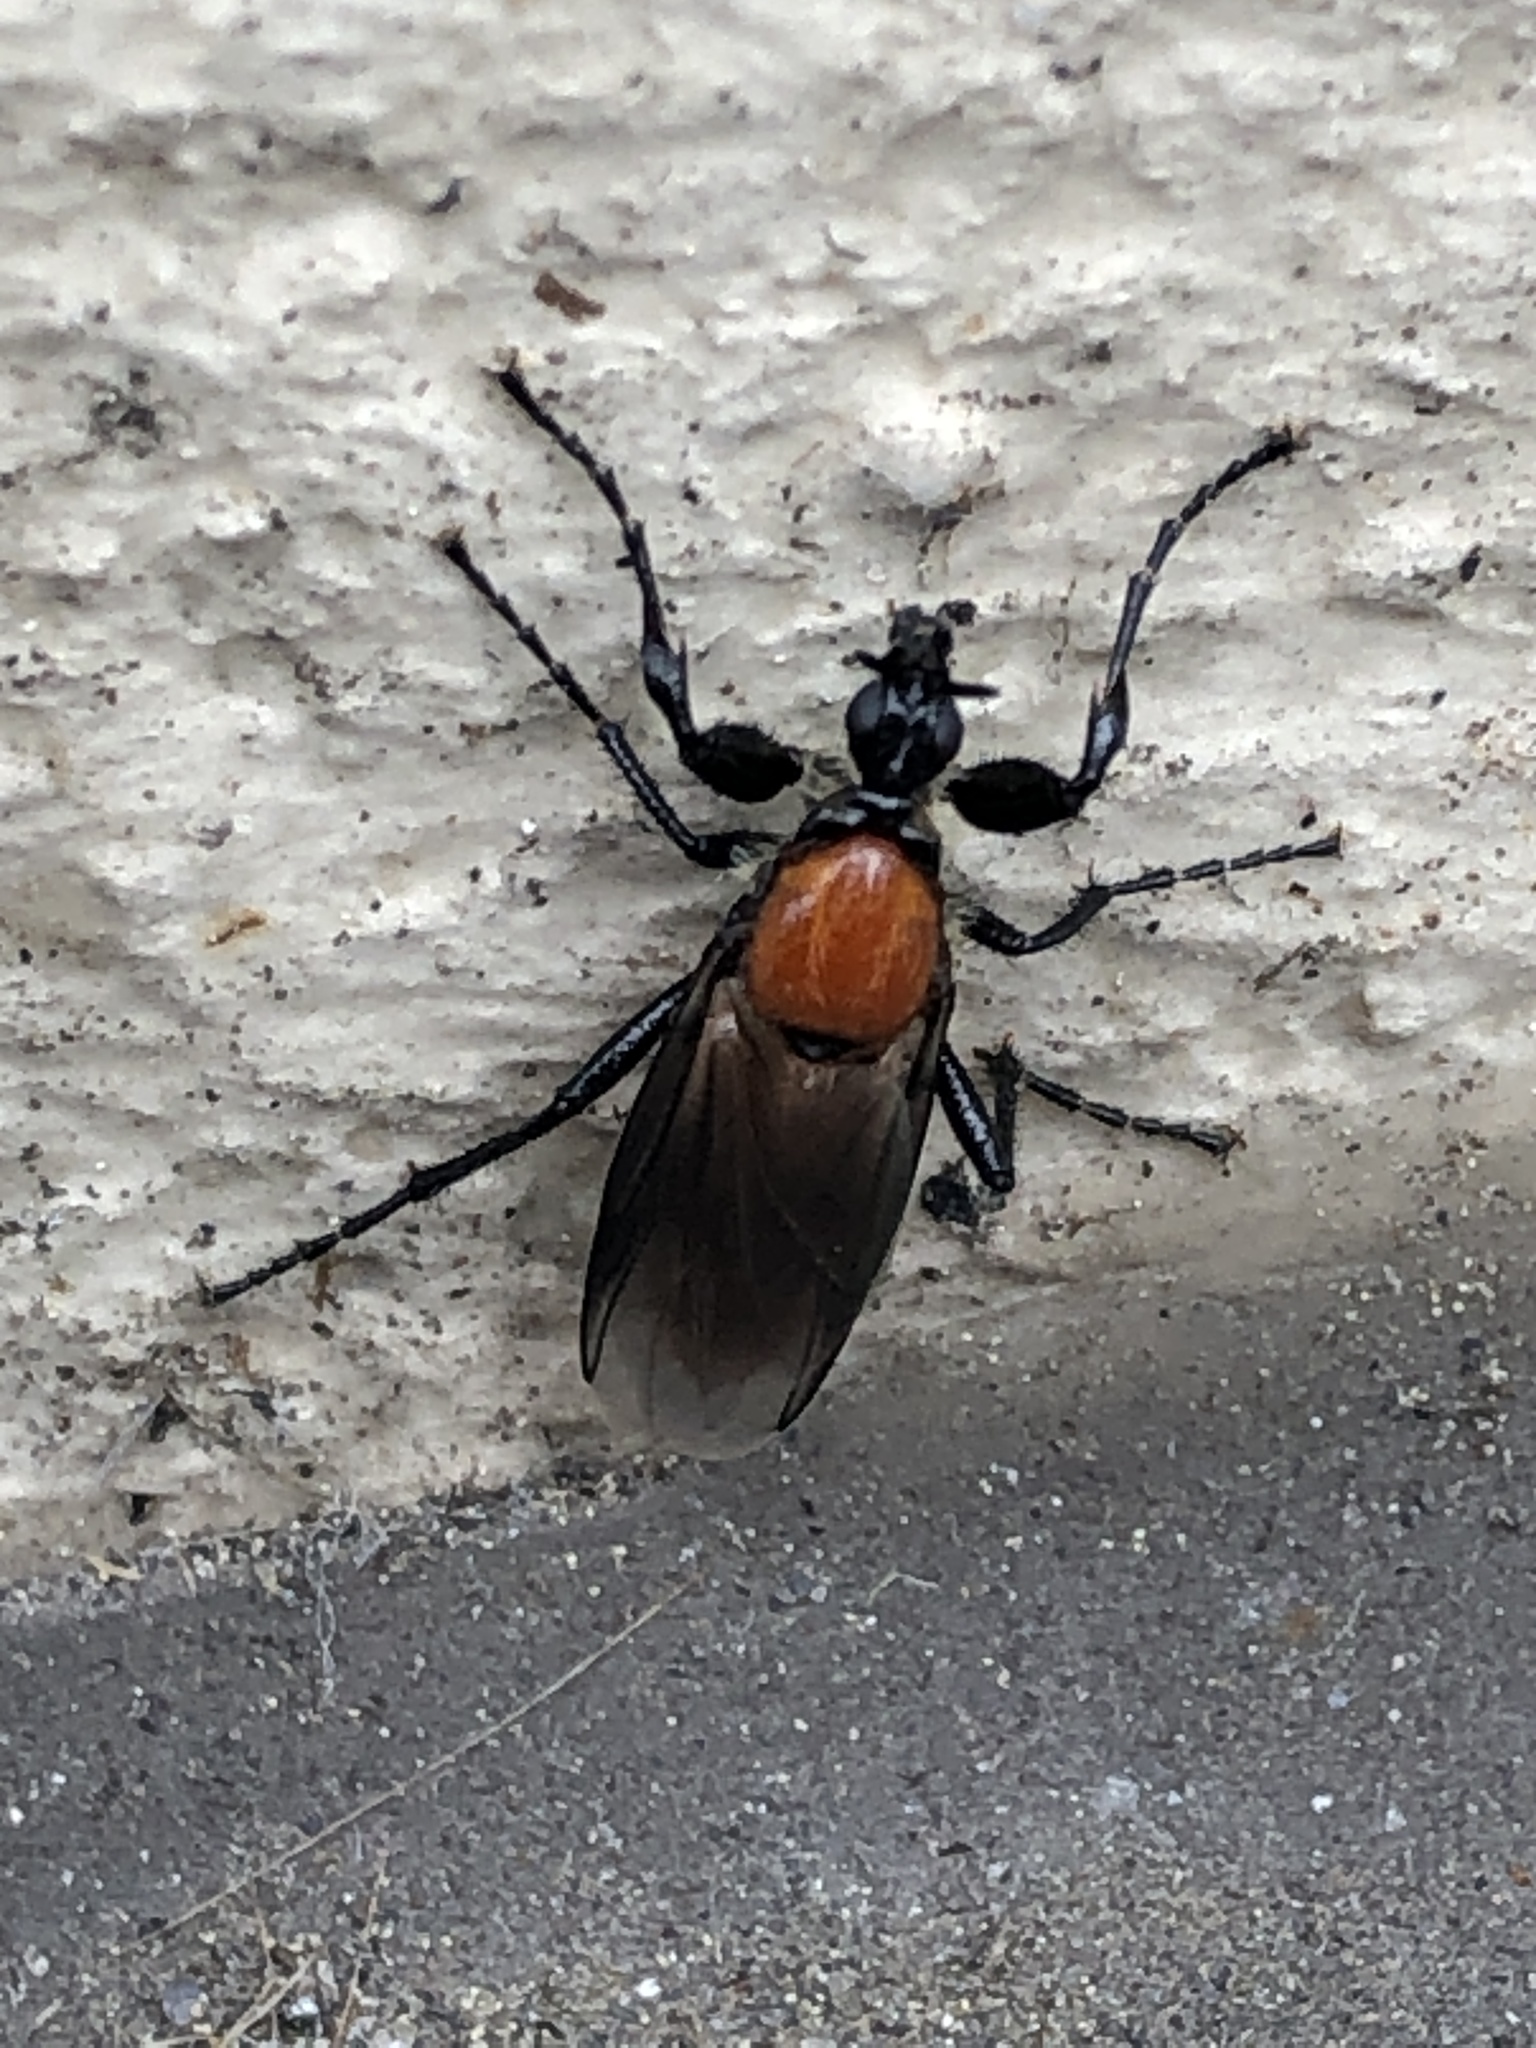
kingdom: Animalia
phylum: Arthropoda
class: Insecta
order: Diptera
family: Bibionidae
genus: Bibio
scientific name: Bibio hortulanus
